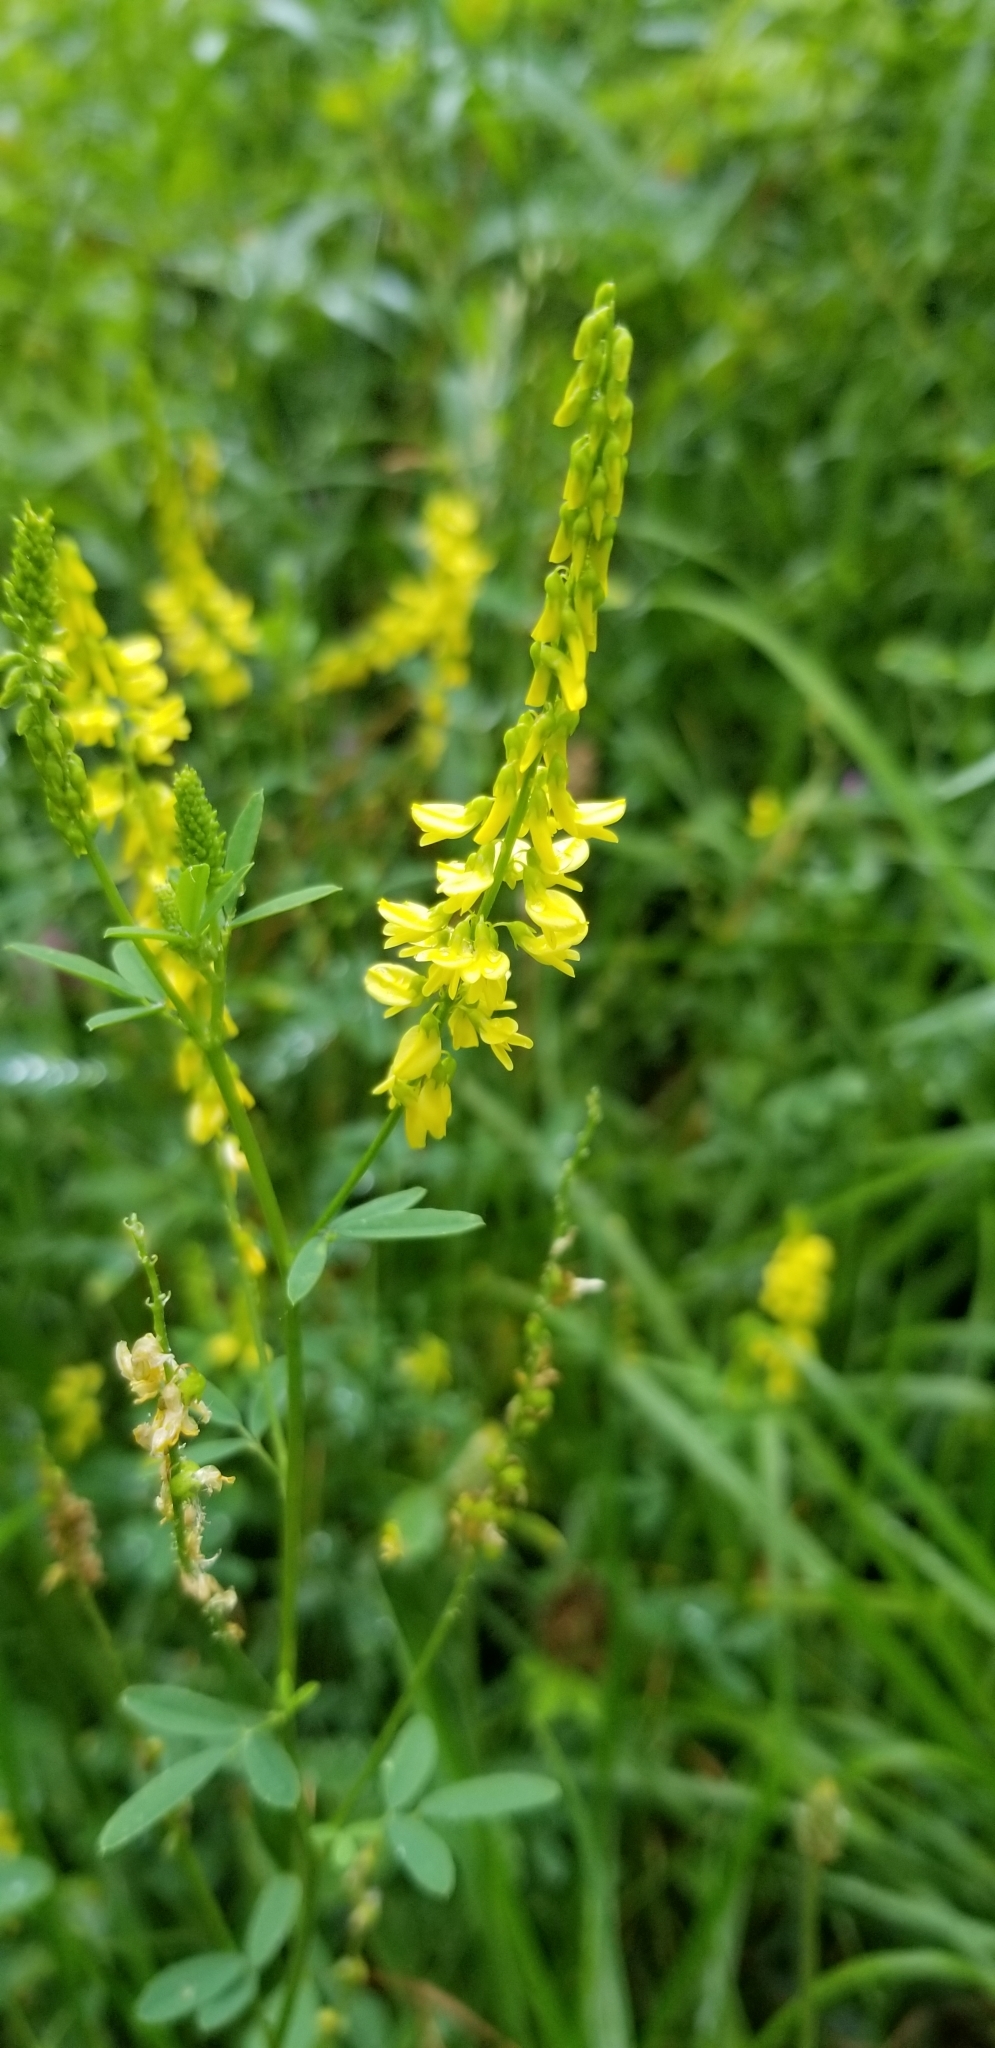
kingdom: Plantae
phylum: Tracheophyta
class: Magnoliopsida
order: Fabales
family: Fabaceae
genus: Melilotus
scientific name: Melilotus officinalis
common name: Sweetclover
